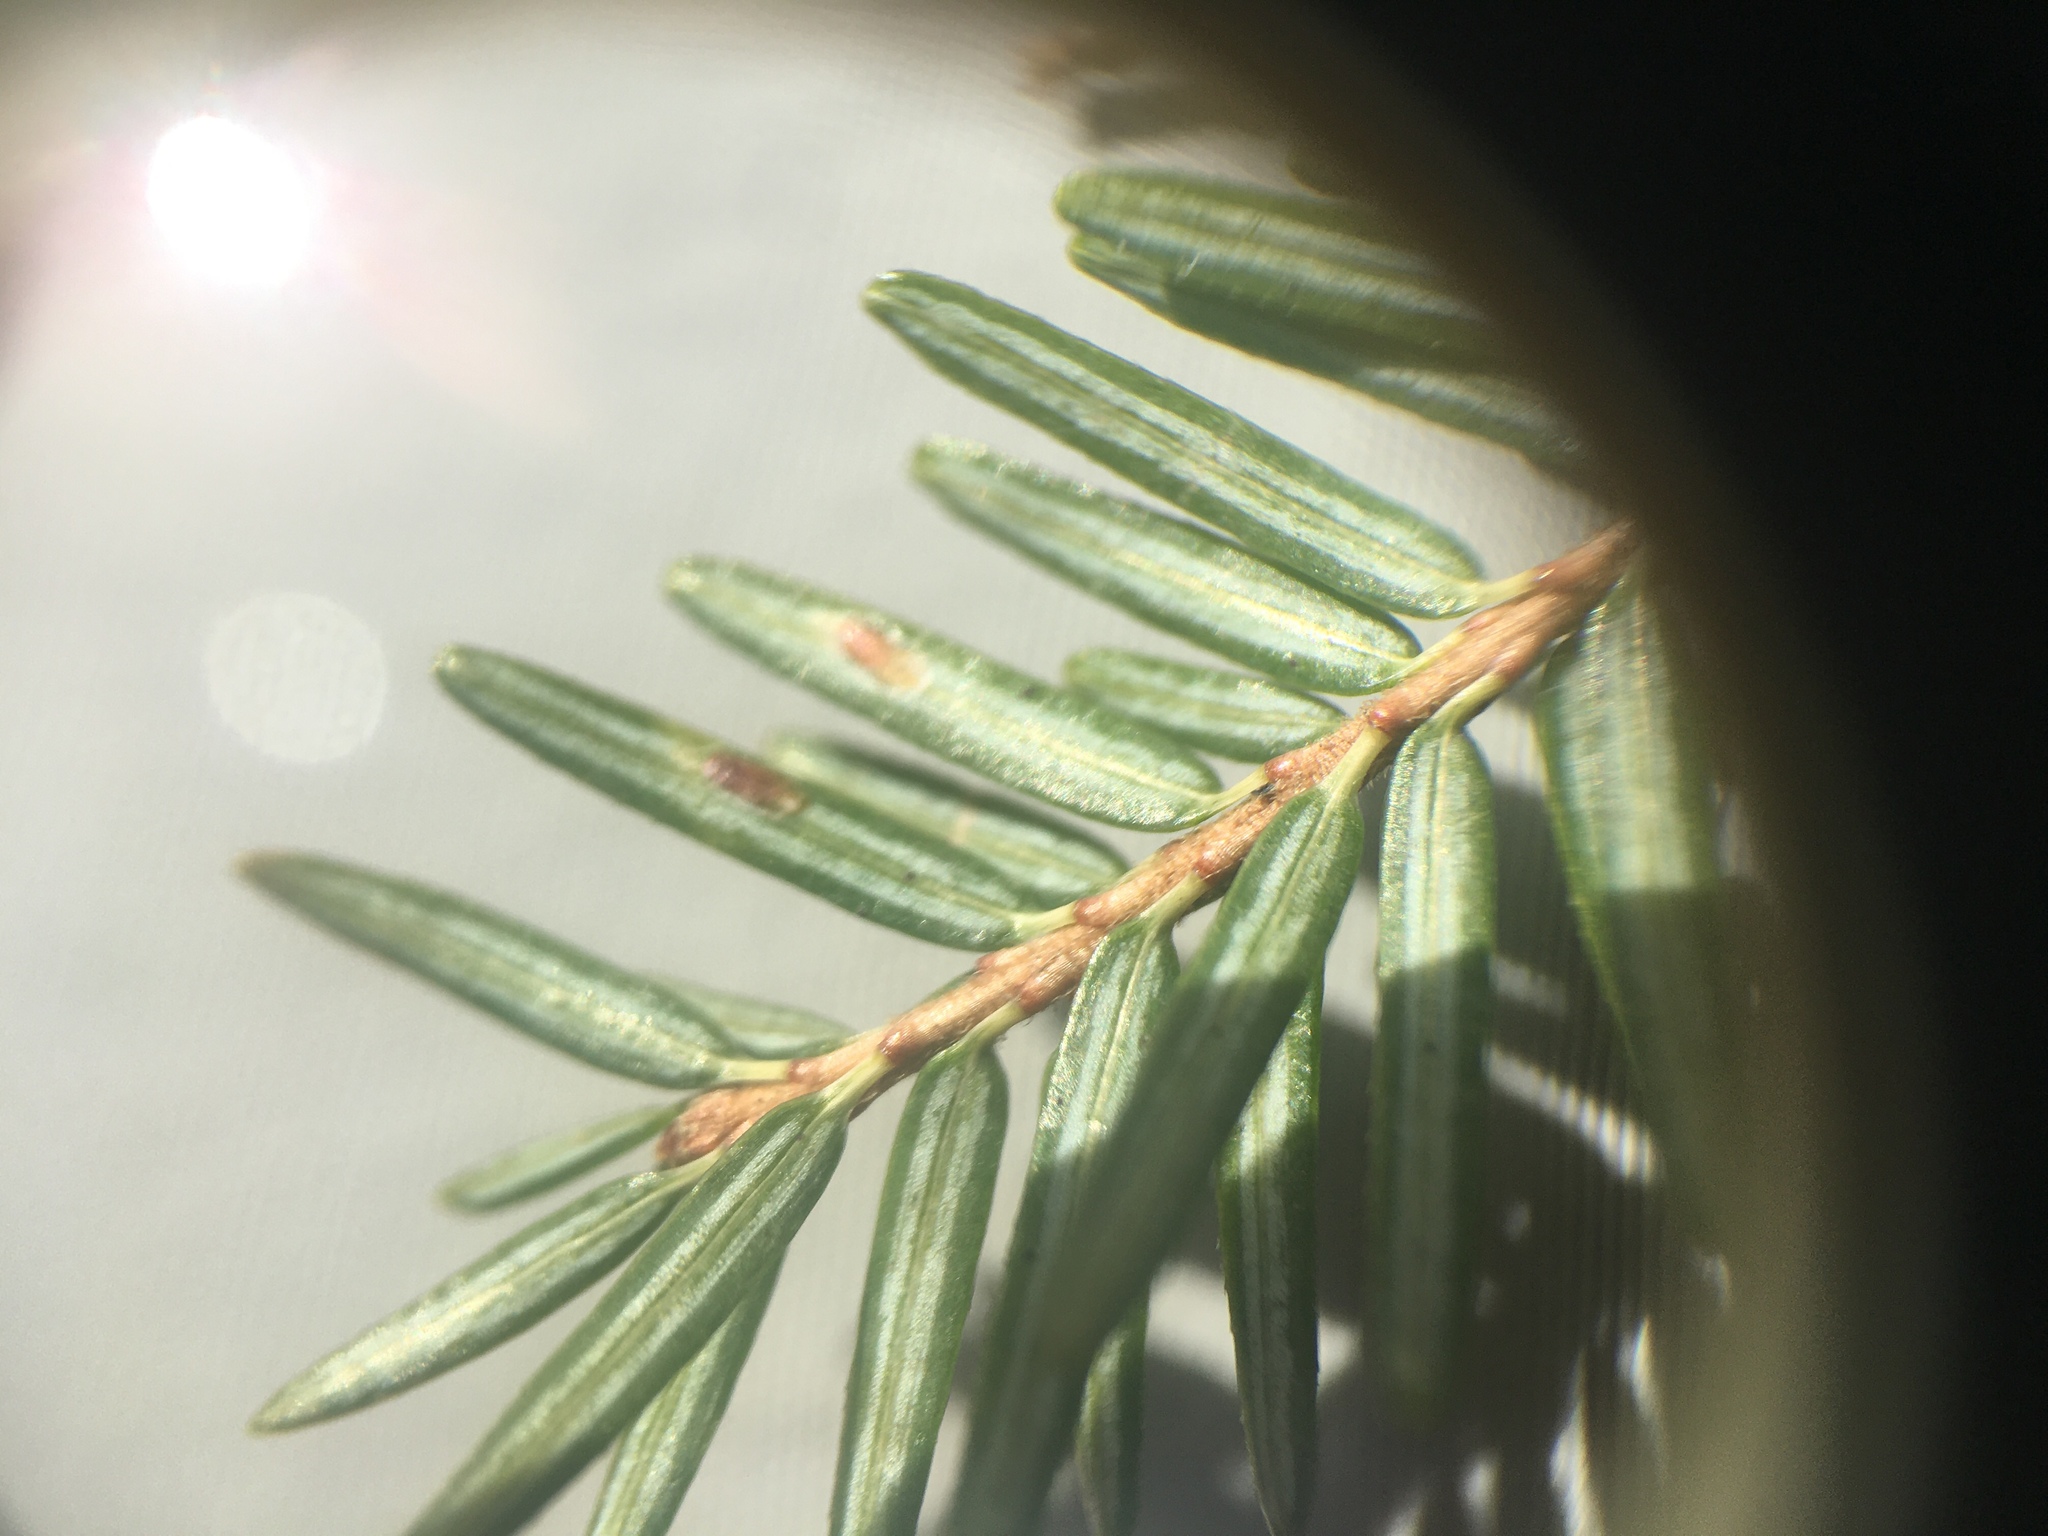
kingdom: Animalia
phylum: Arthropoda
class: Insecta
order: Hemiptera
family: Diaspididae
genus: Fiorinia
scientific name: Fiorinia externa
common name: Elongate hemlock scale
